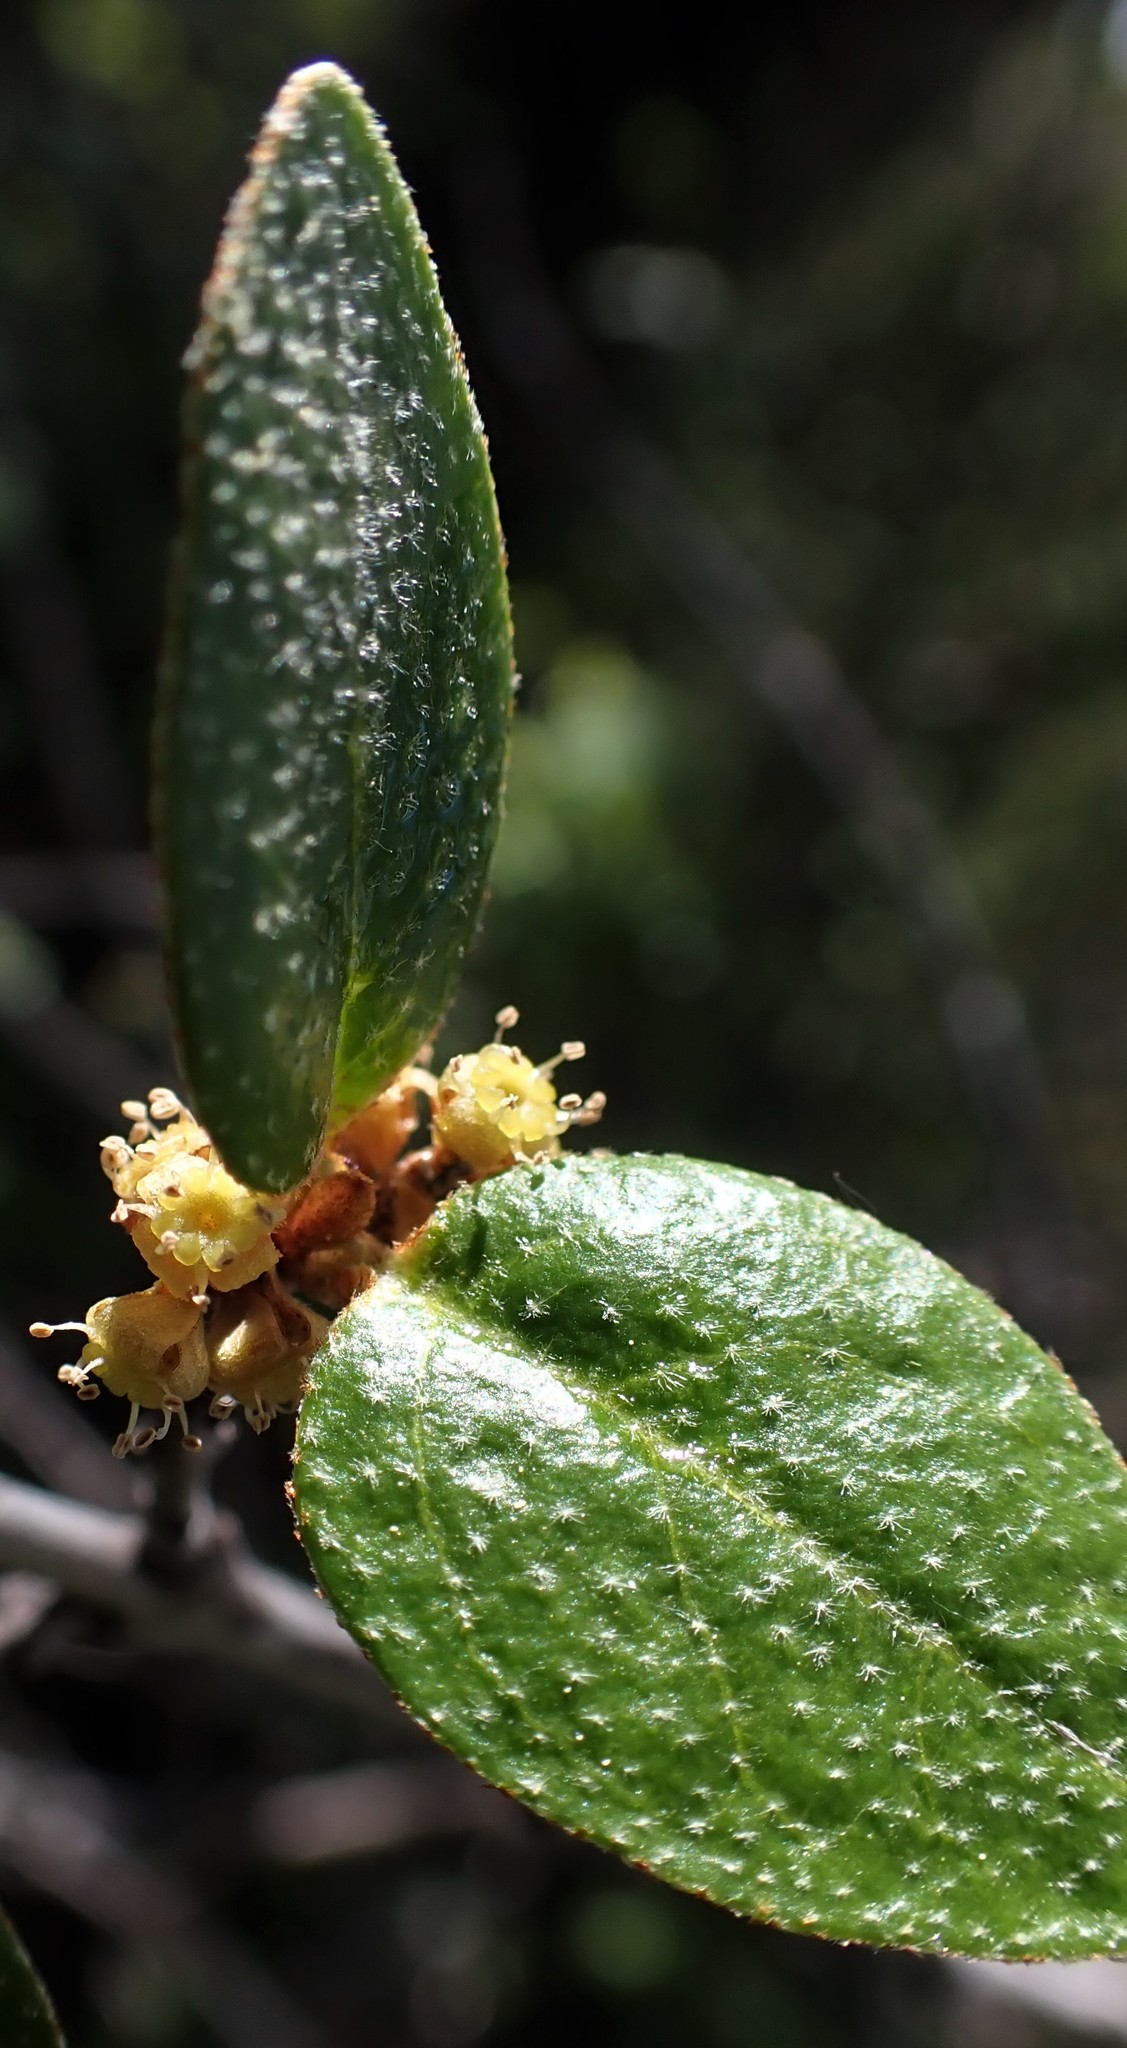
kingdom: Plantae
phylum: Tracheophyta
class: Magnoliopsida
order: Rosales
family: Elaeagnaceae
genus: Shepherdia
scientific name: Shepherdia canadensis
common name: Soapberry
